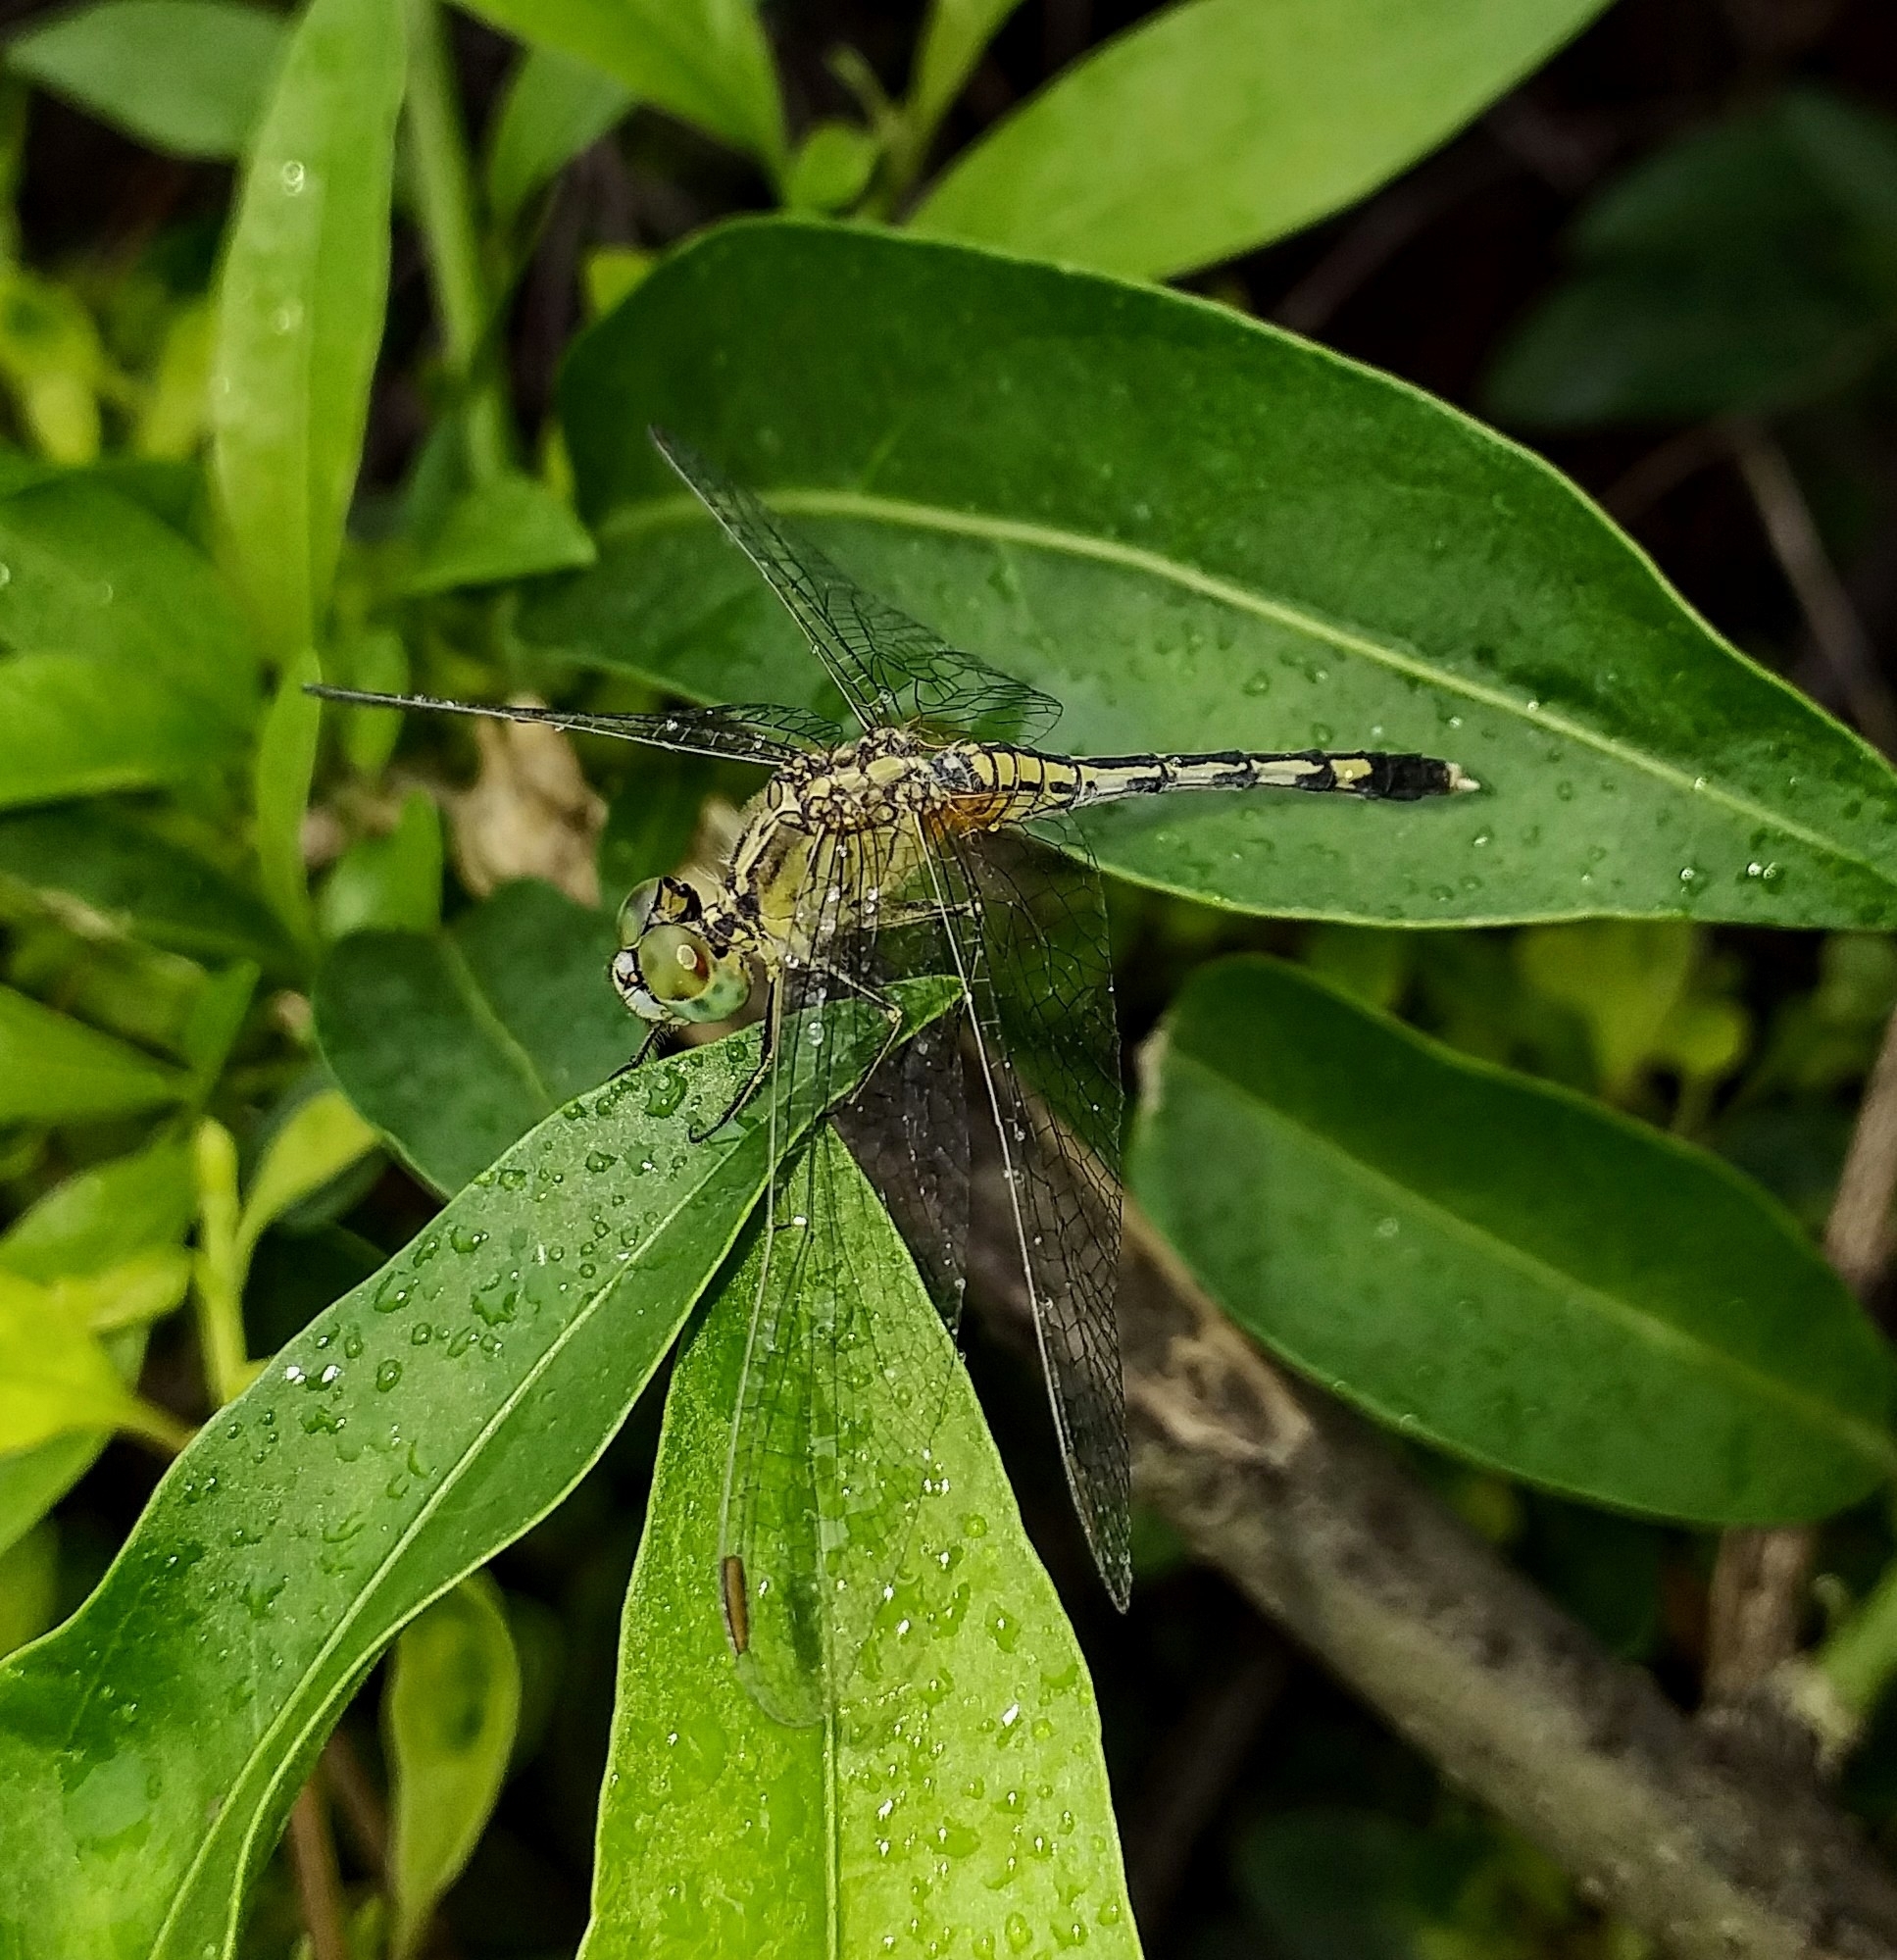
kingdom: Animalia
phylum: Arthropoda
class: Insecta
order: Odonata
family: Libellulidae
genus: Diplacodes
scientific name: Diplacodes trivialis
